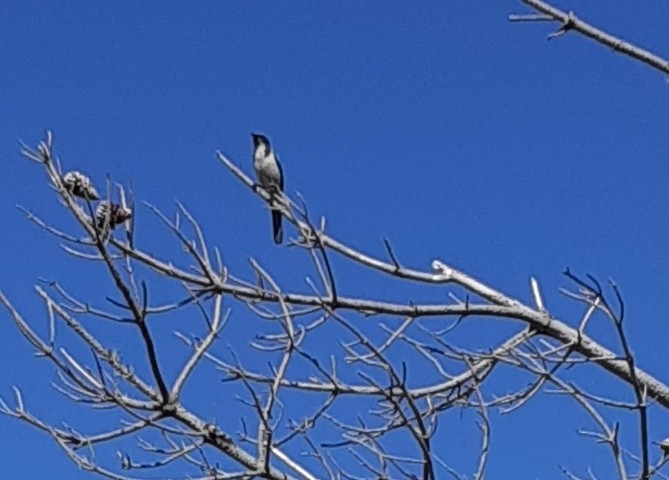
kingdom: Animalia
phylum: Chordata
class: Aves
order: Passeriformes
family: Corvidae
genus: Aphelocoma
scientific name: Aphelocoma californica
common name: California scrub-jay
